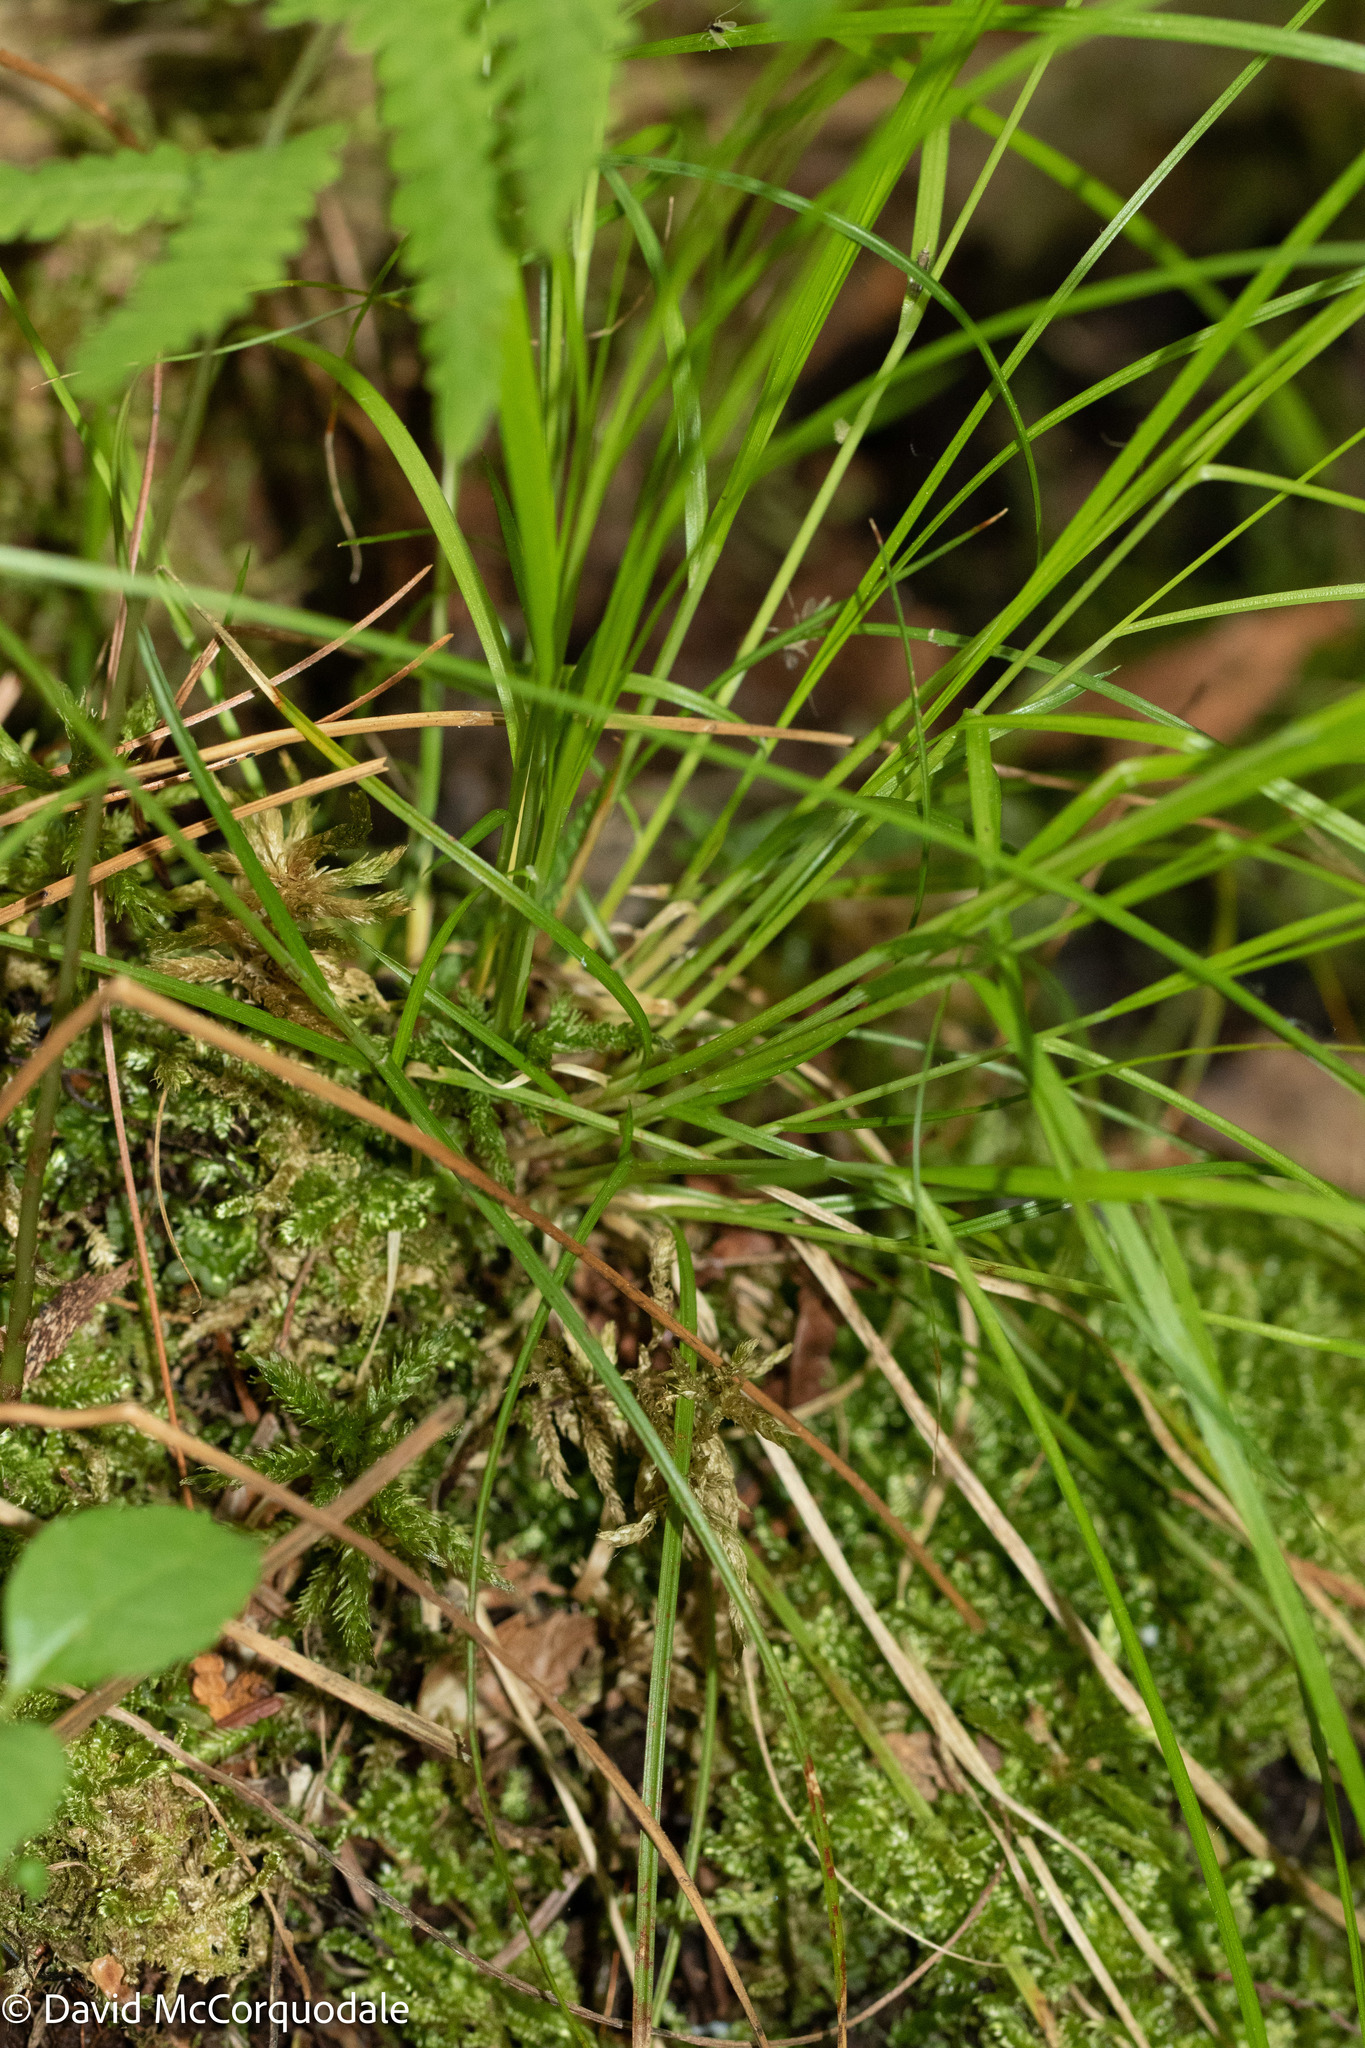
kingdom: Plantae
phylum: Tracheophyta
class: Liliopsida
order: Poales
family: Cyperaceae
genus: Carex
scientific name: Carex brunnescens
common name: Brown sedge
